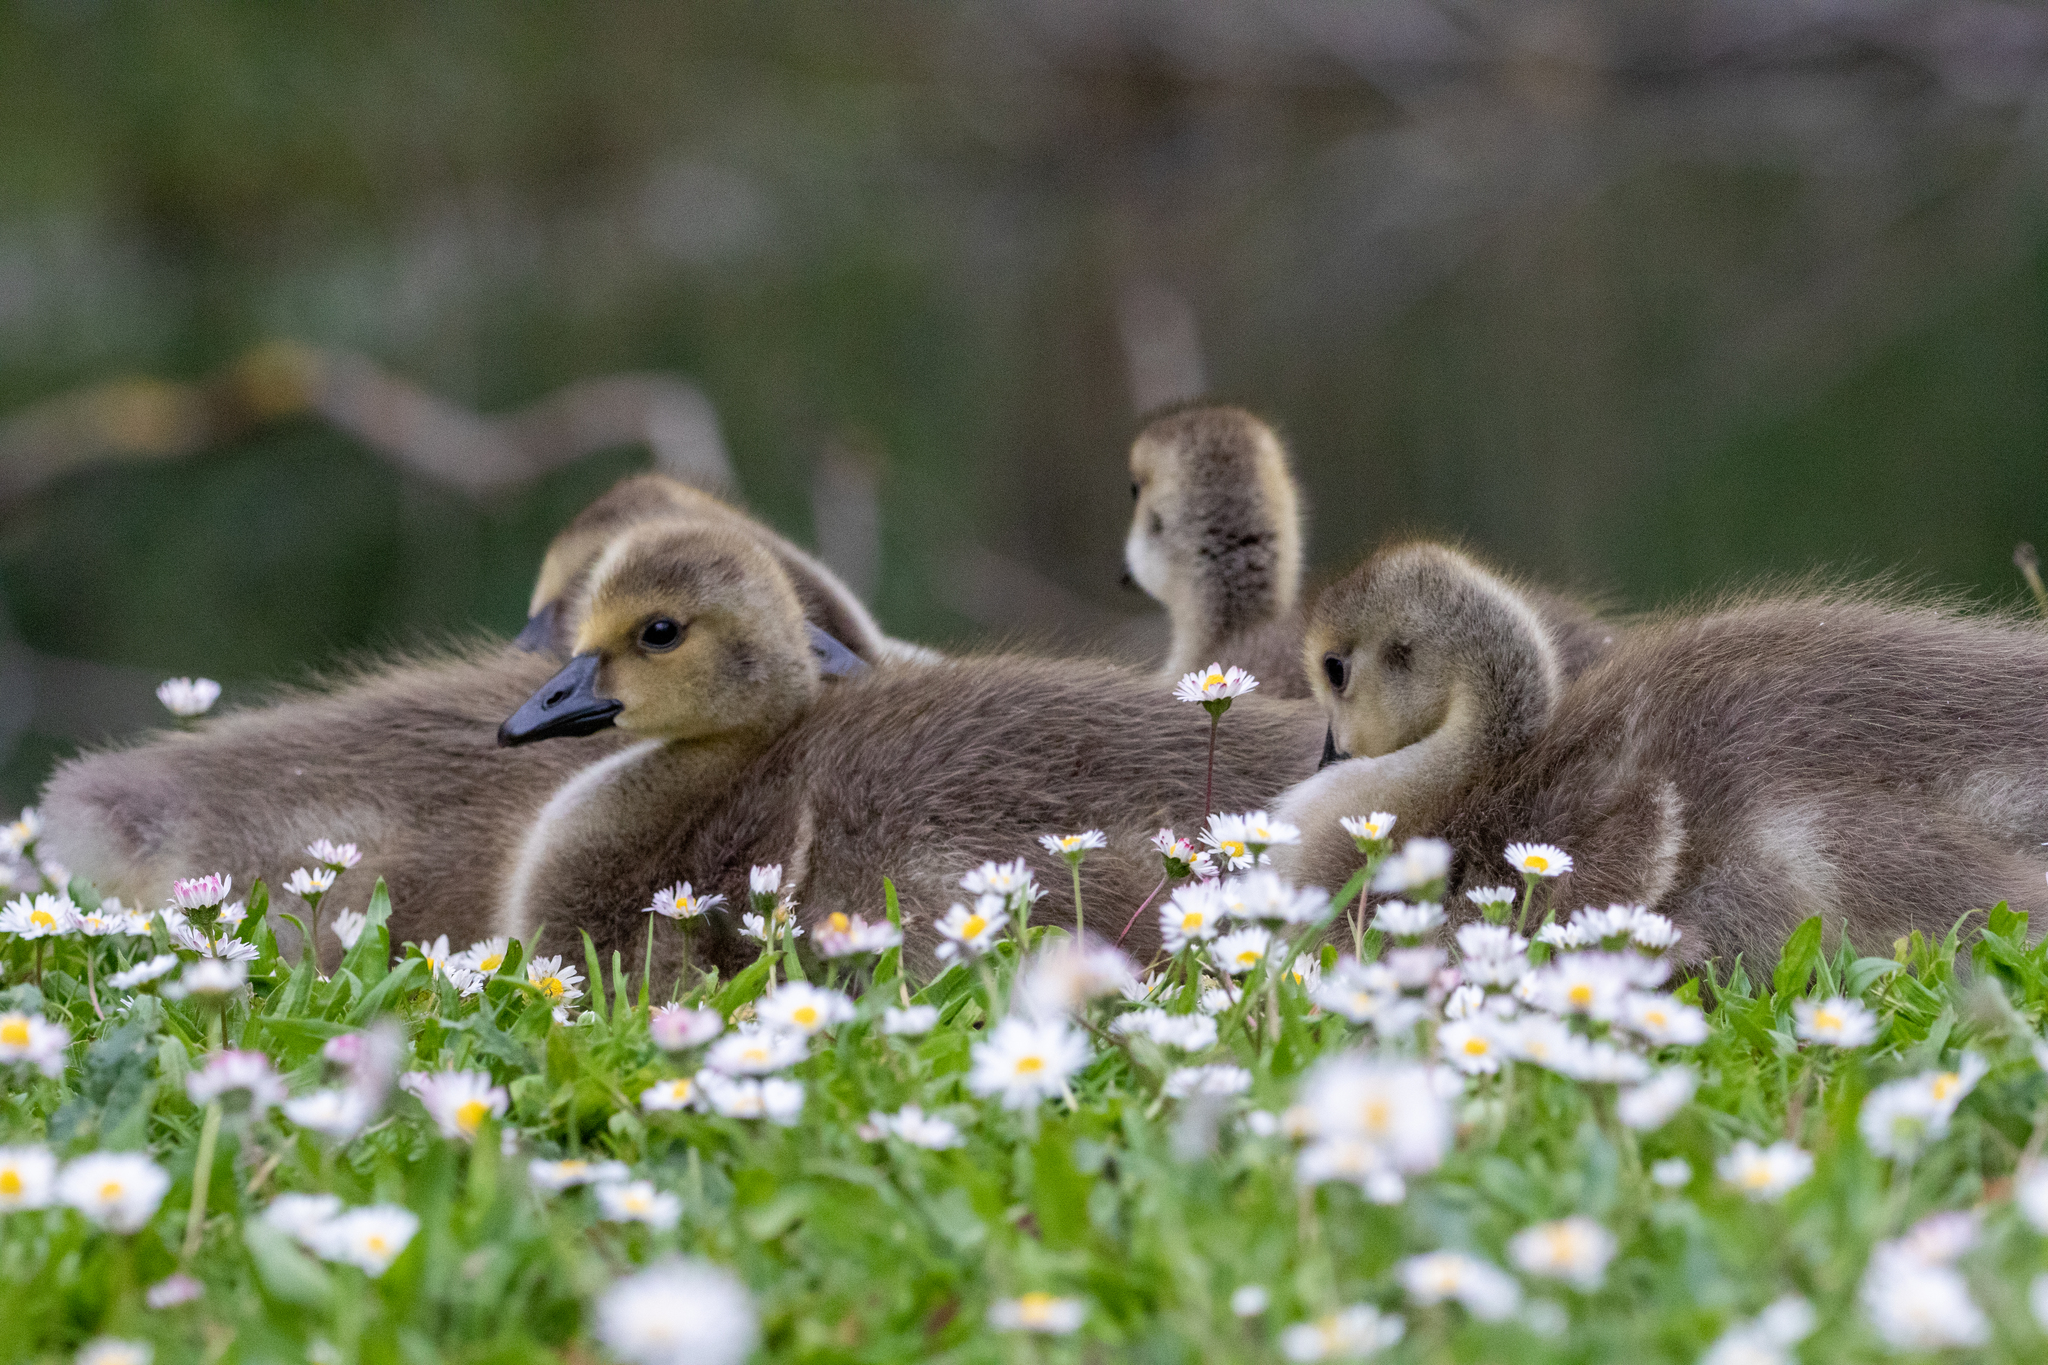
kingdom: Animalia
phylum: Chordata
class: Aves
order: Anseriformes
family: Anatidae
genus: Branta
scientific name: Branta canadensis
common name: Canada goose
